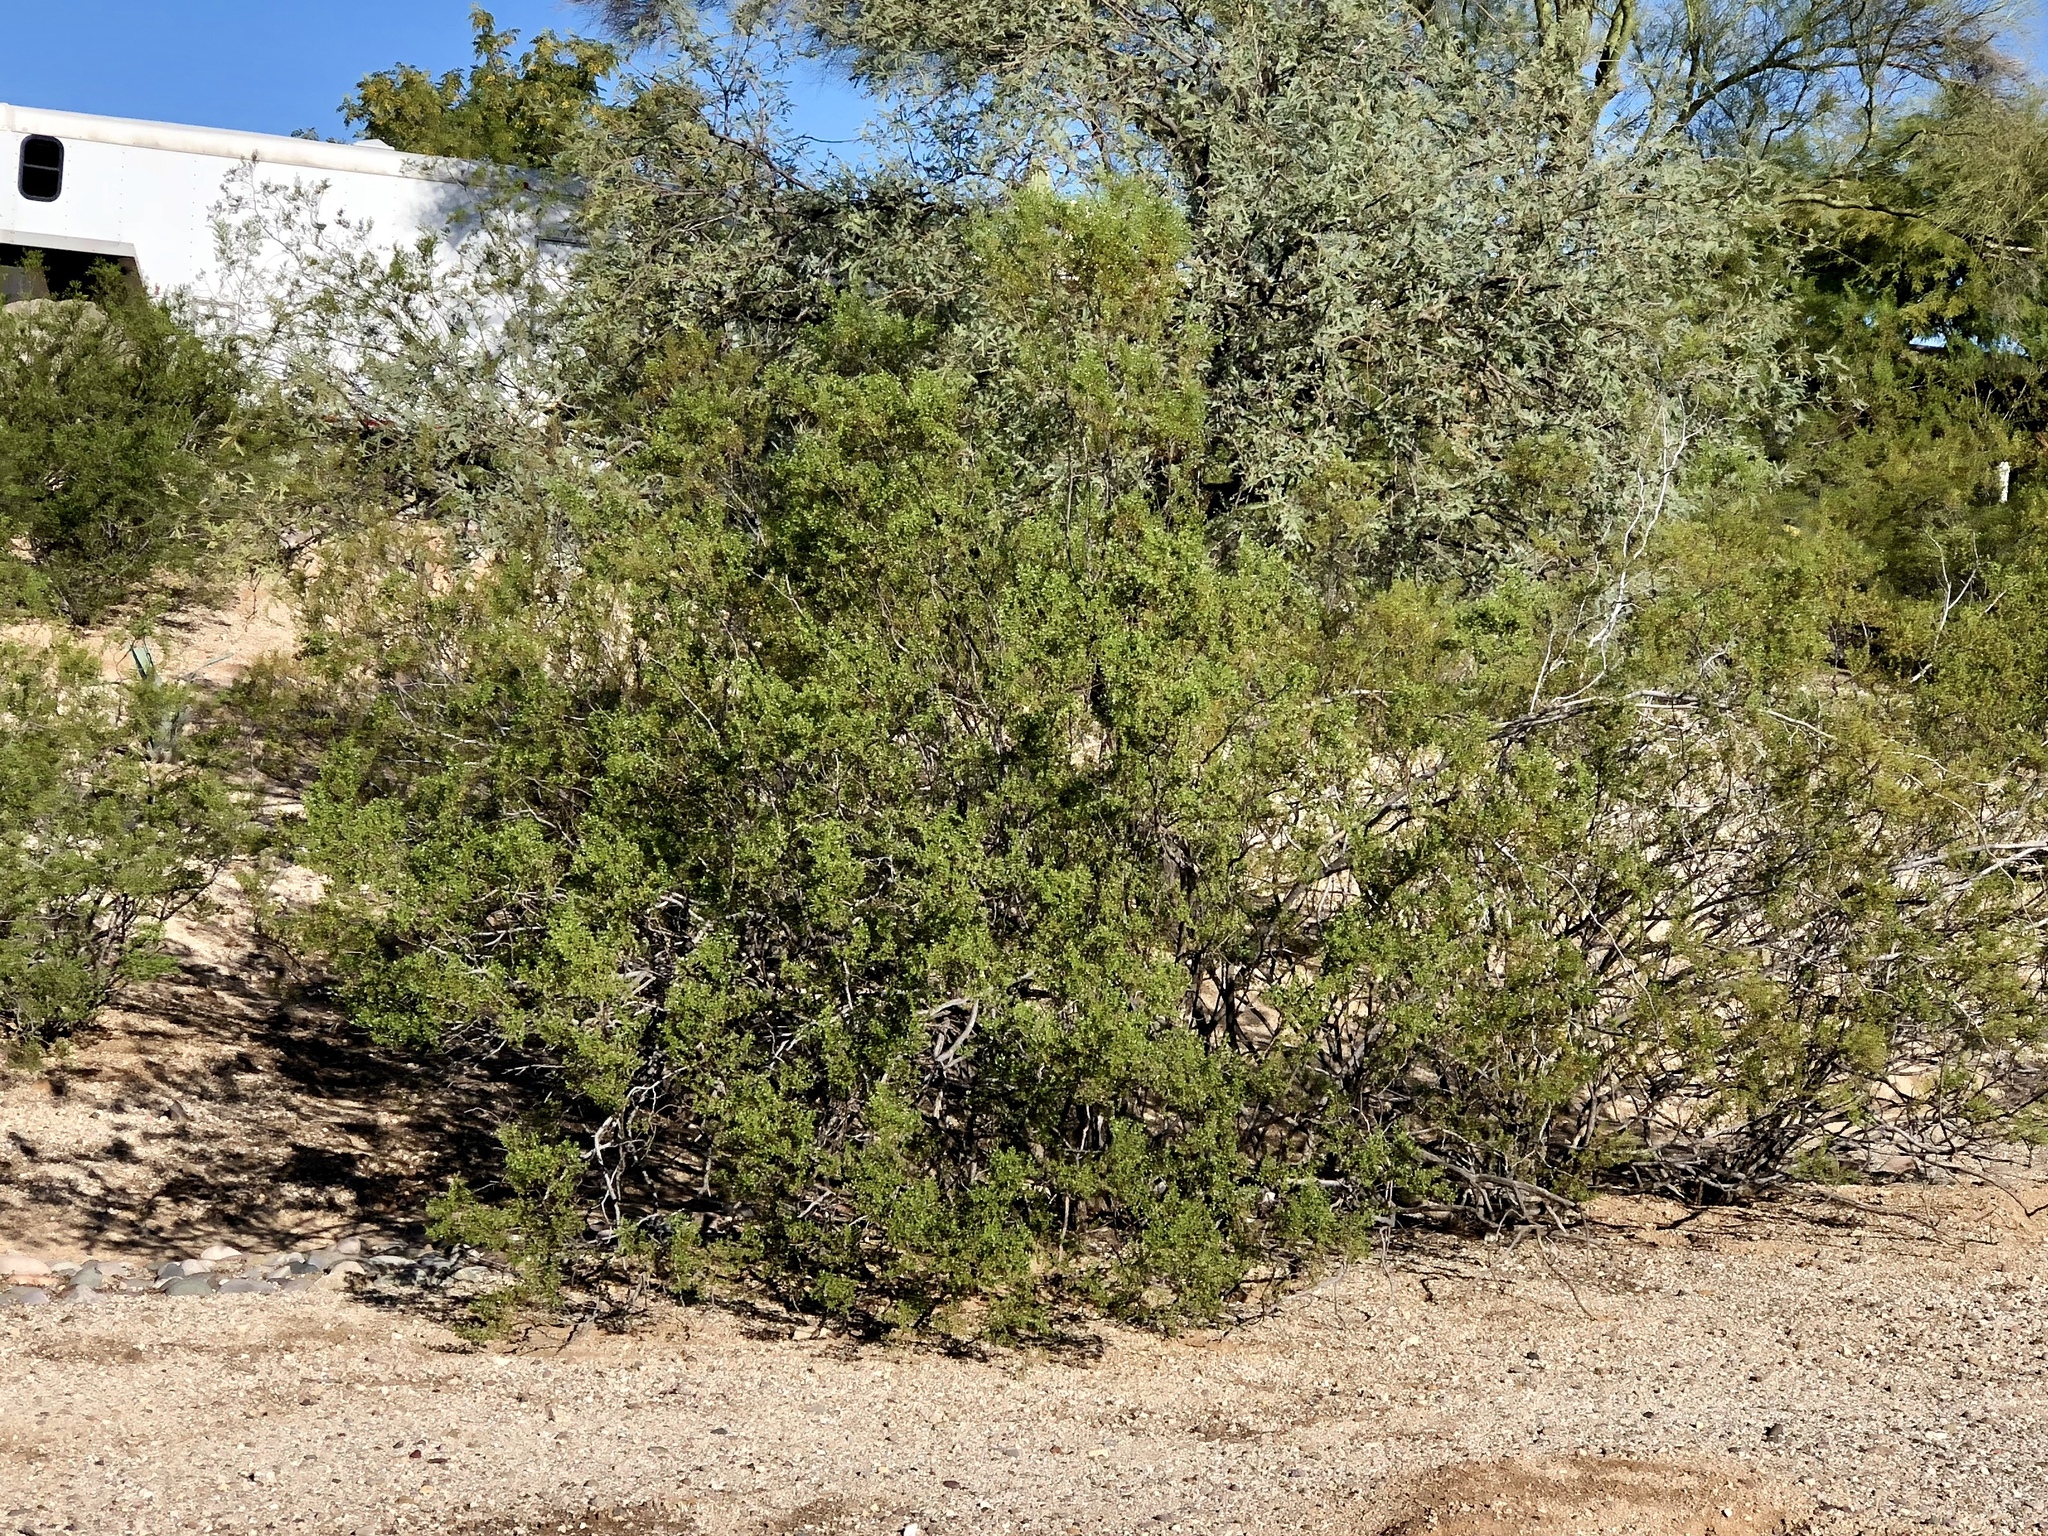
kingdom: Plantae
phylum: Tracheophyta
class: Magnoliopsida
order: Zygophyllales
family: Zygophyllaceae
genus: Larrea
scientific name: Larrea tridentata
